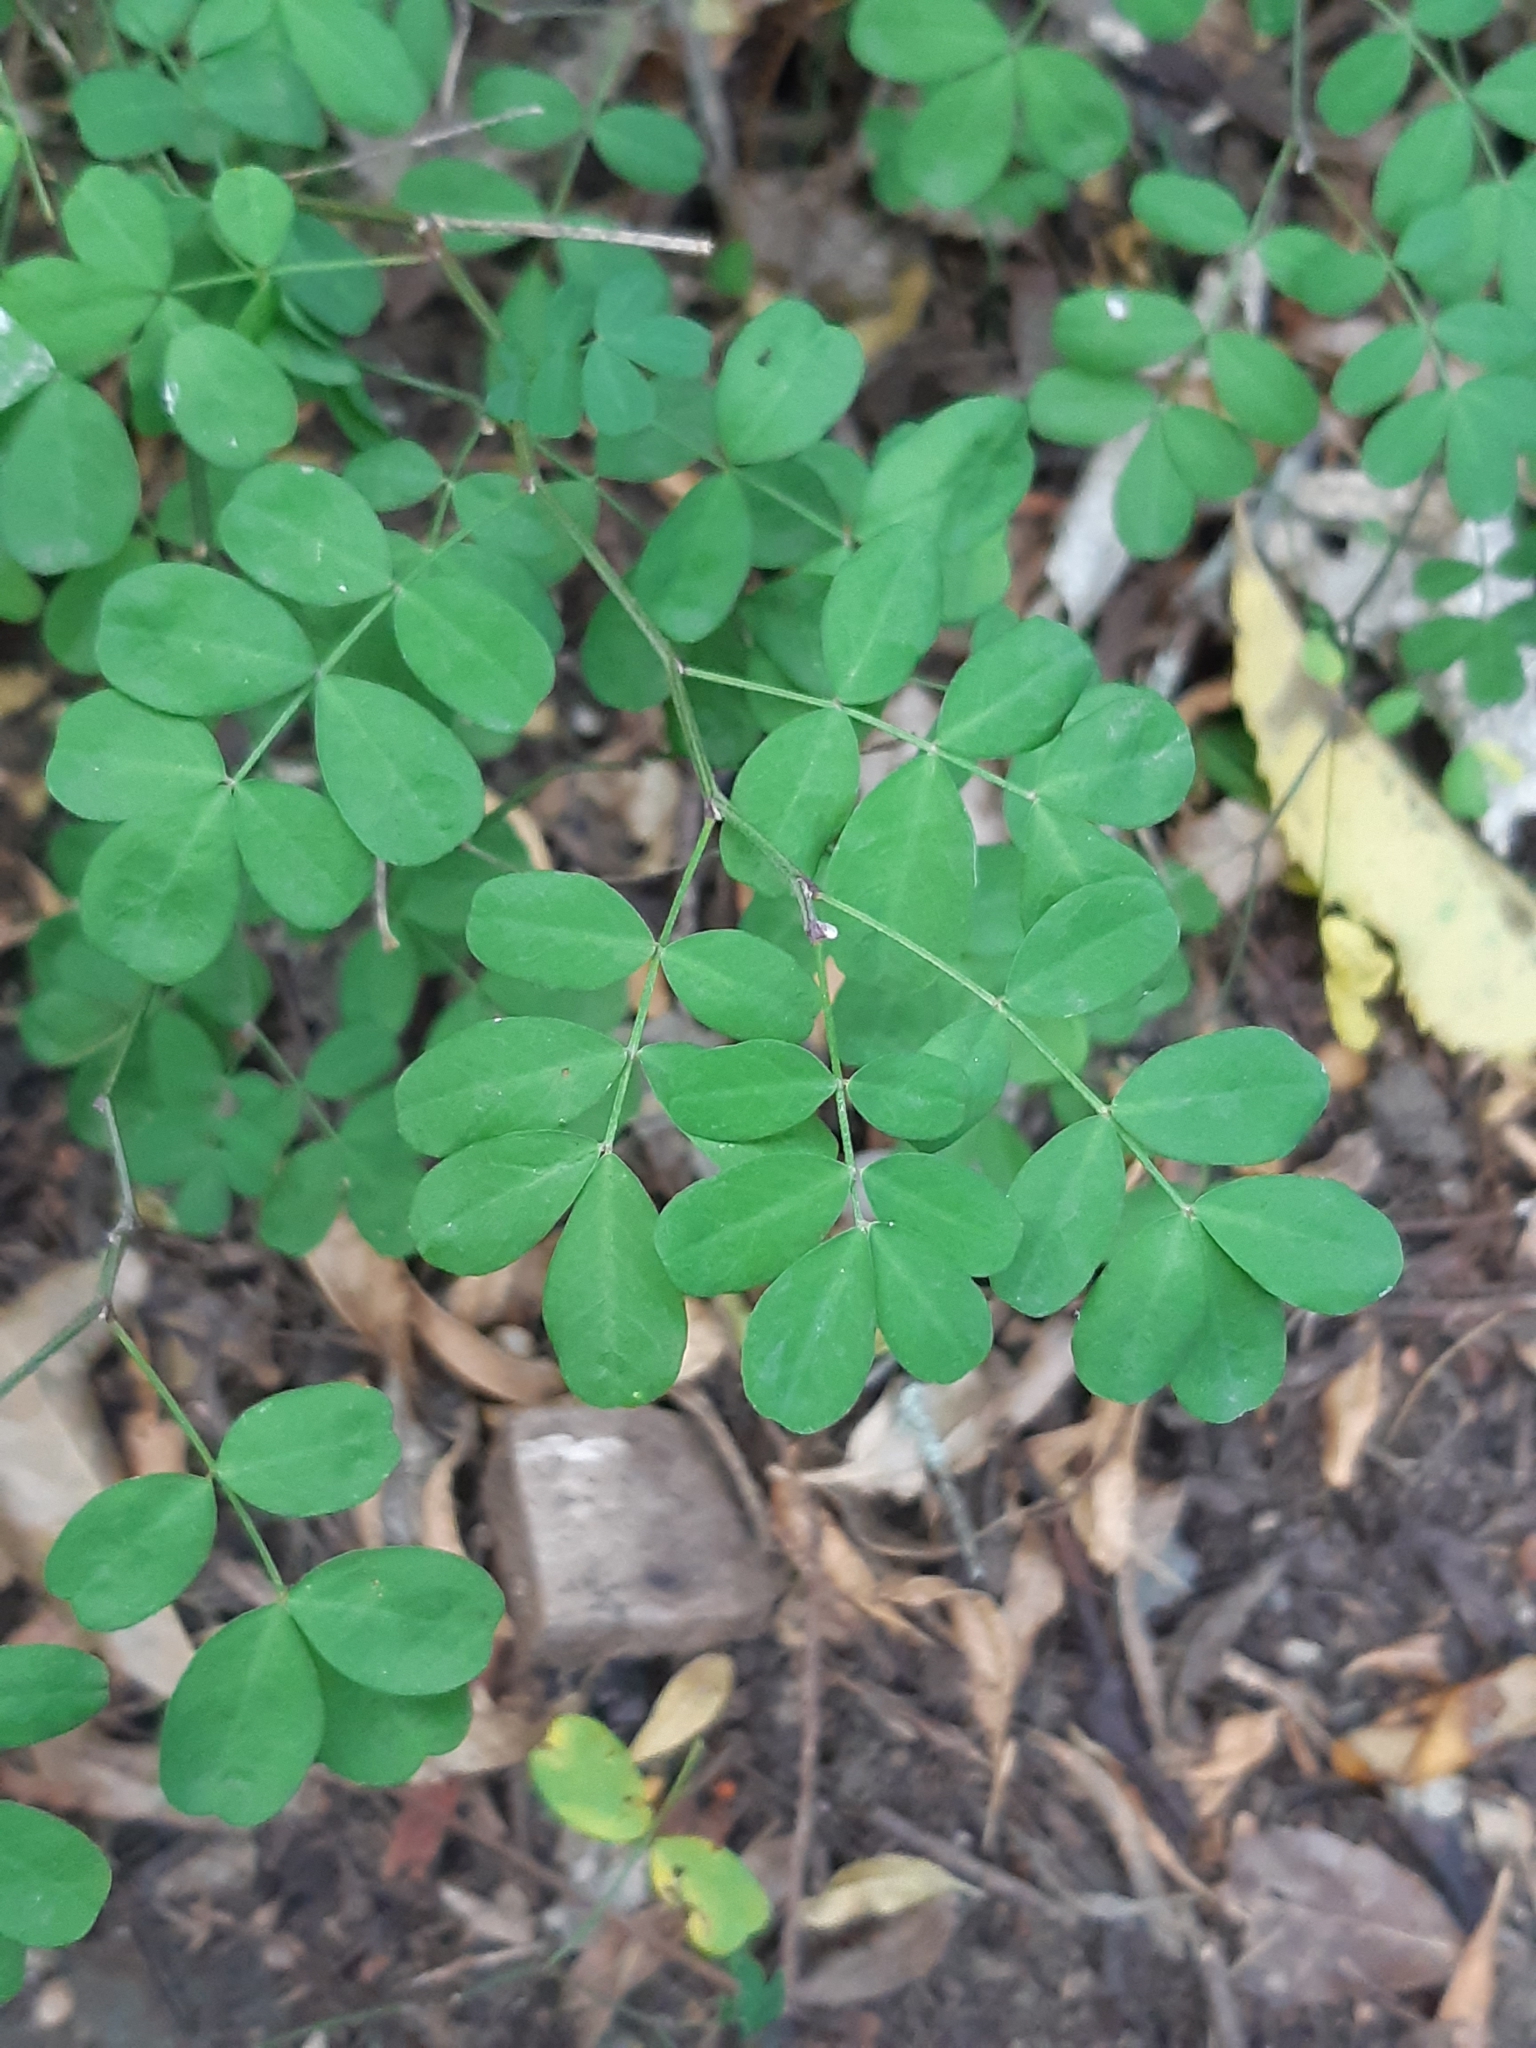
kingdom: Plantae
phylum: Tracheophyta
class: Magnoliopsida
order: Fabales
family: Fabaceae
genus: Hippocrepis
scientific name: Hippocrepis emerus
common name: Scorpion senna
